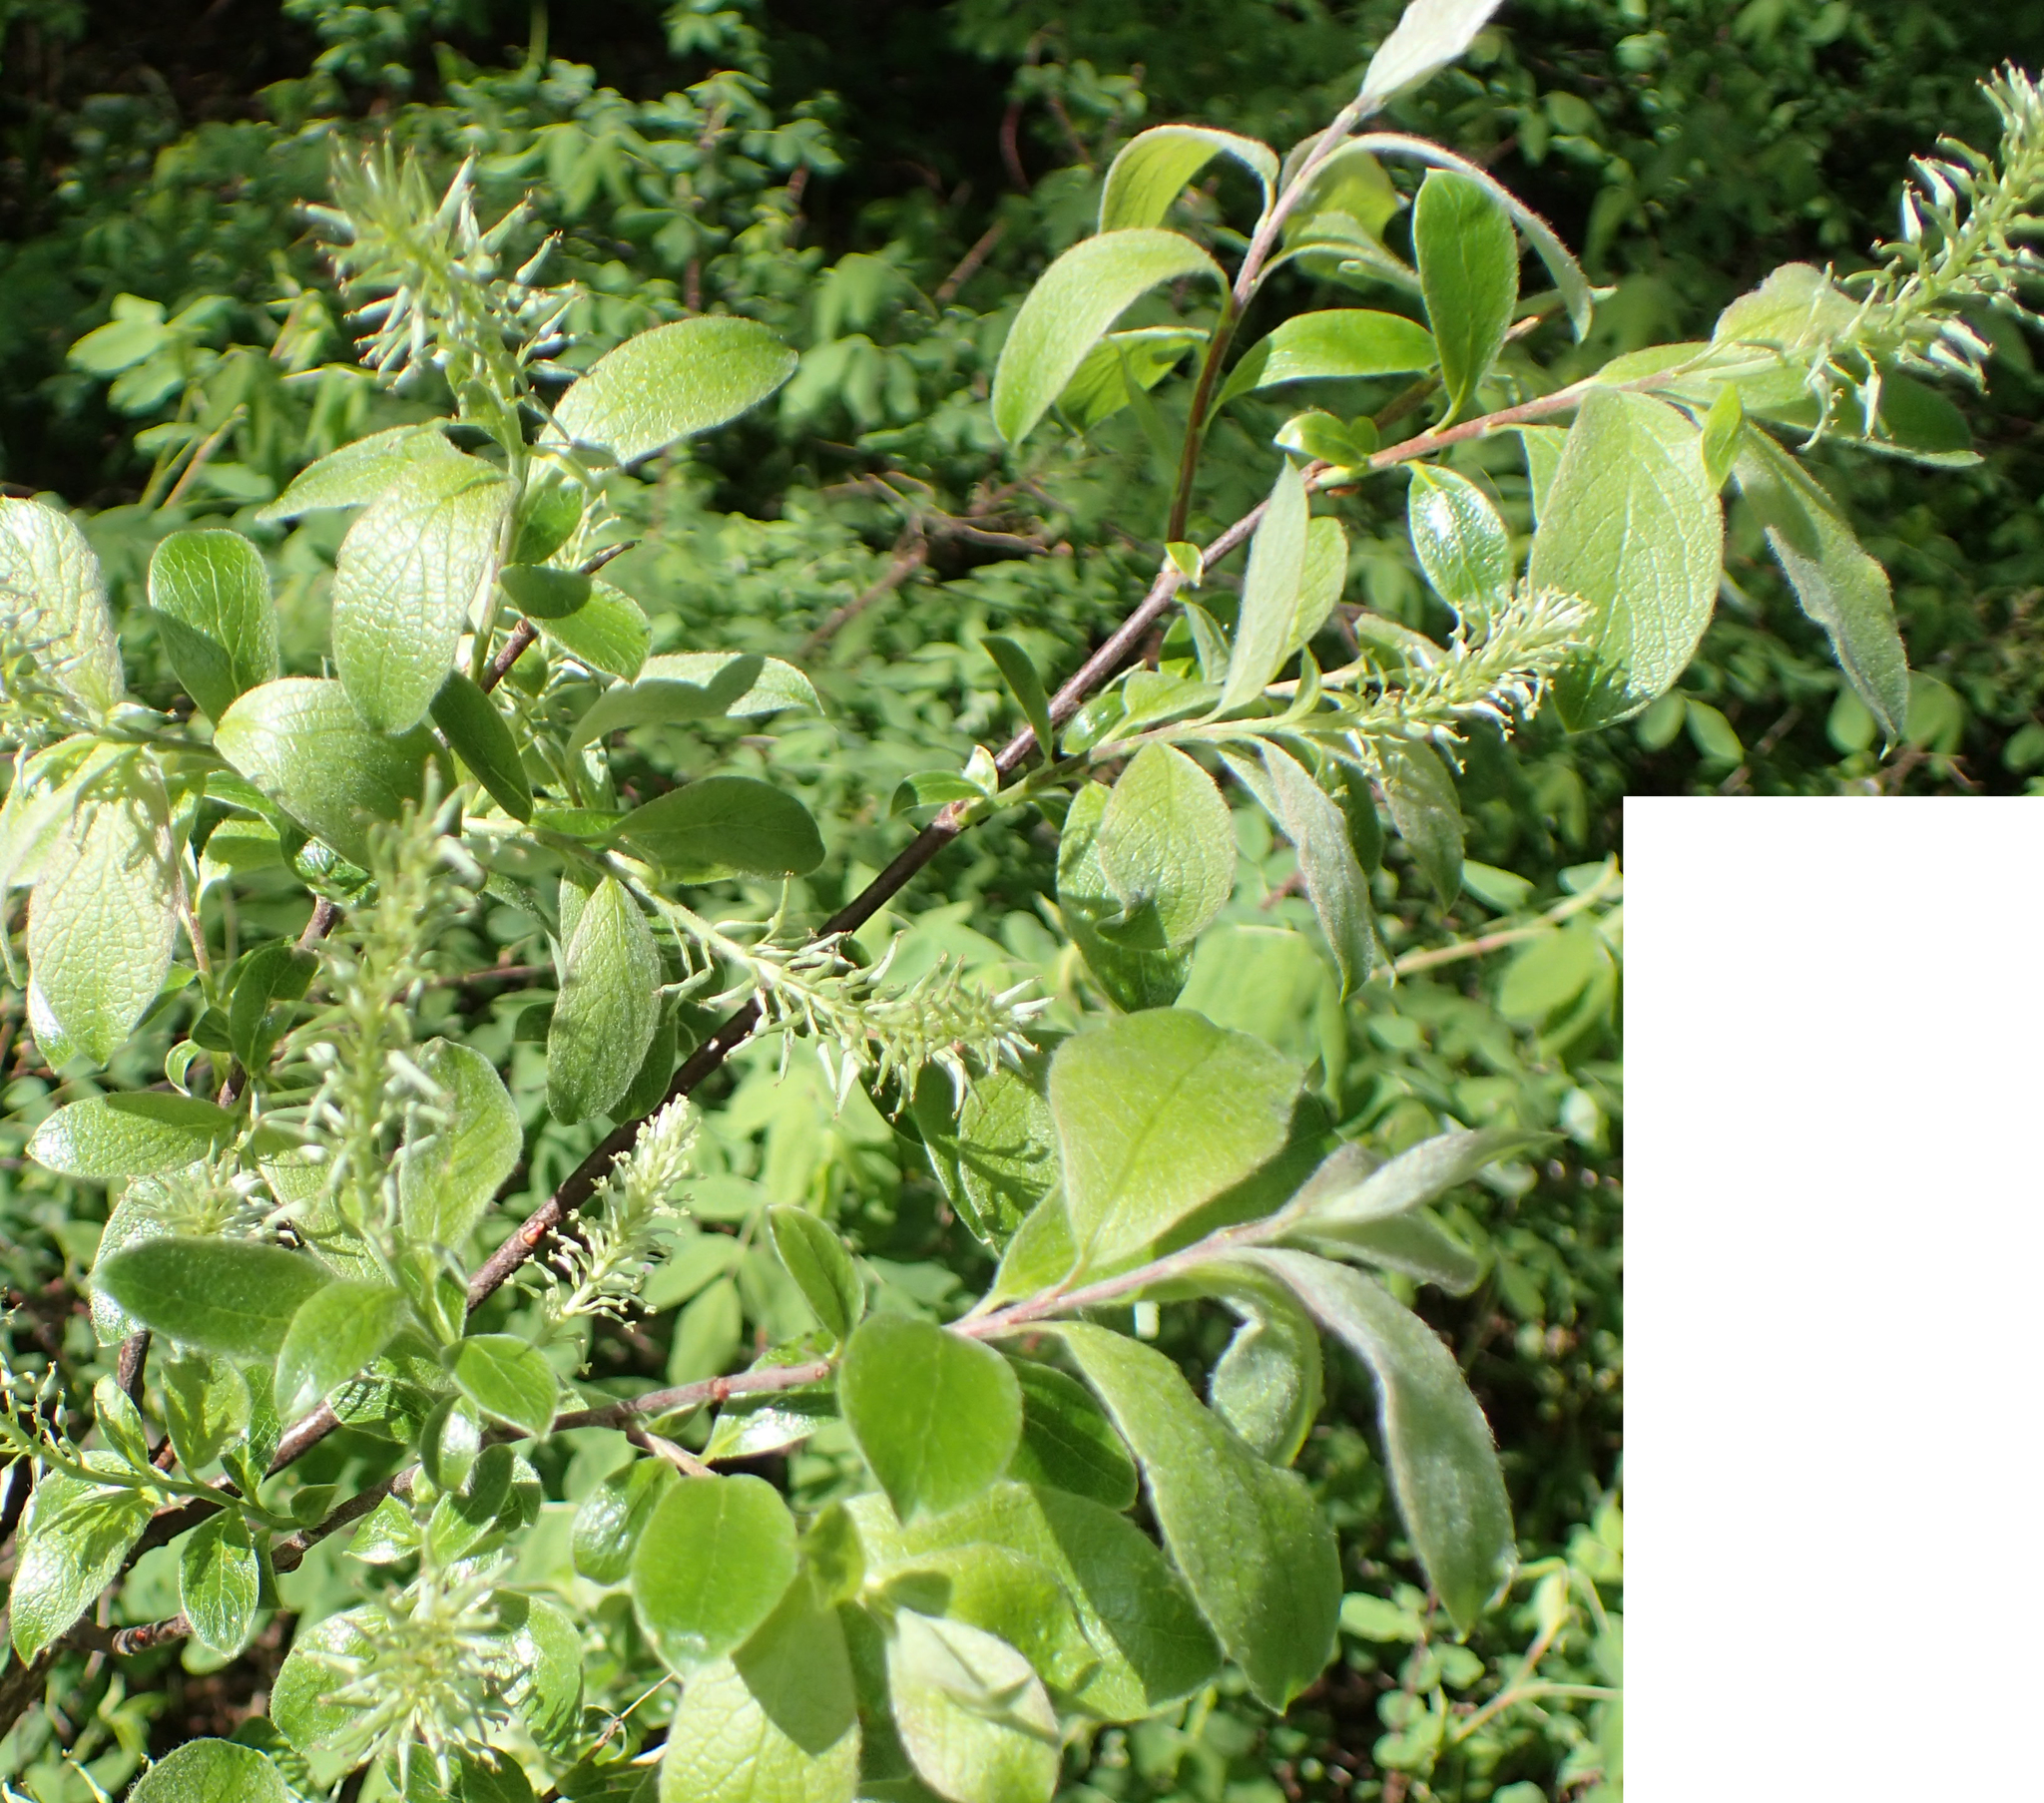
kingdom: Plantae
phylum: Tracheophyta
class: Magnoliopsida
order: Malpighiales
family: Salicaceae
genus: Salix
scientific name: Salix bebbiana
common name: Bebb's willow
